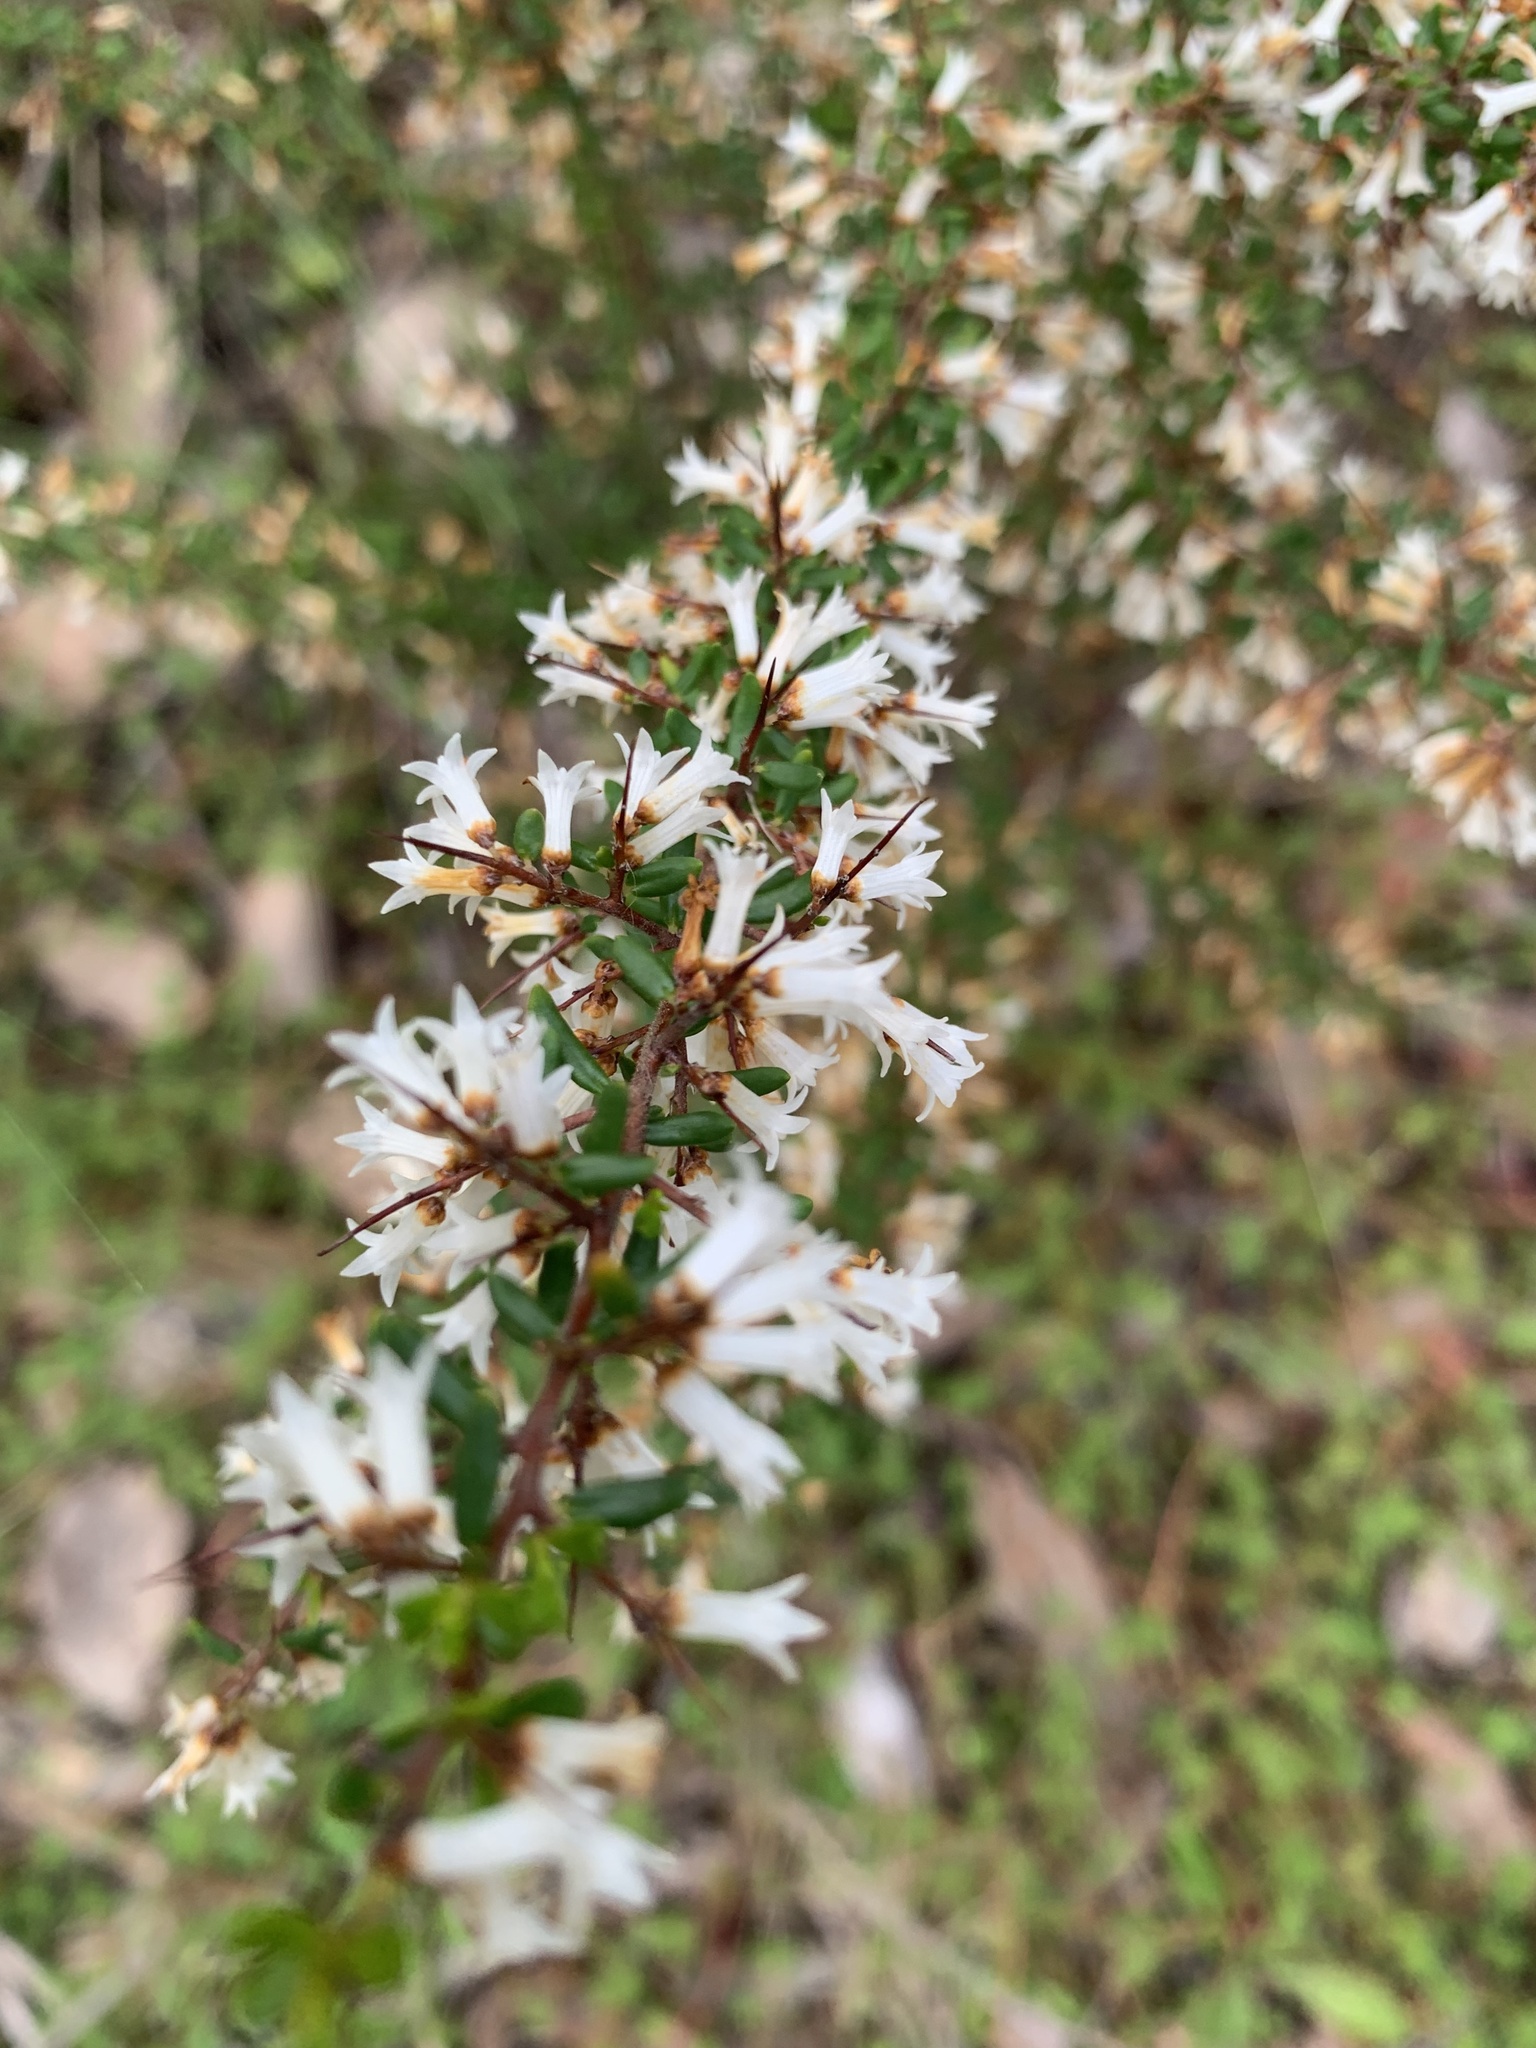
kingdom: Plantae
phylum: Tracheophyta
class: Magnoliopsida
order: Rosales
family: Rhamnaceae
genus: Cryptandra
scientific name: Cryptandra arbutiflora
